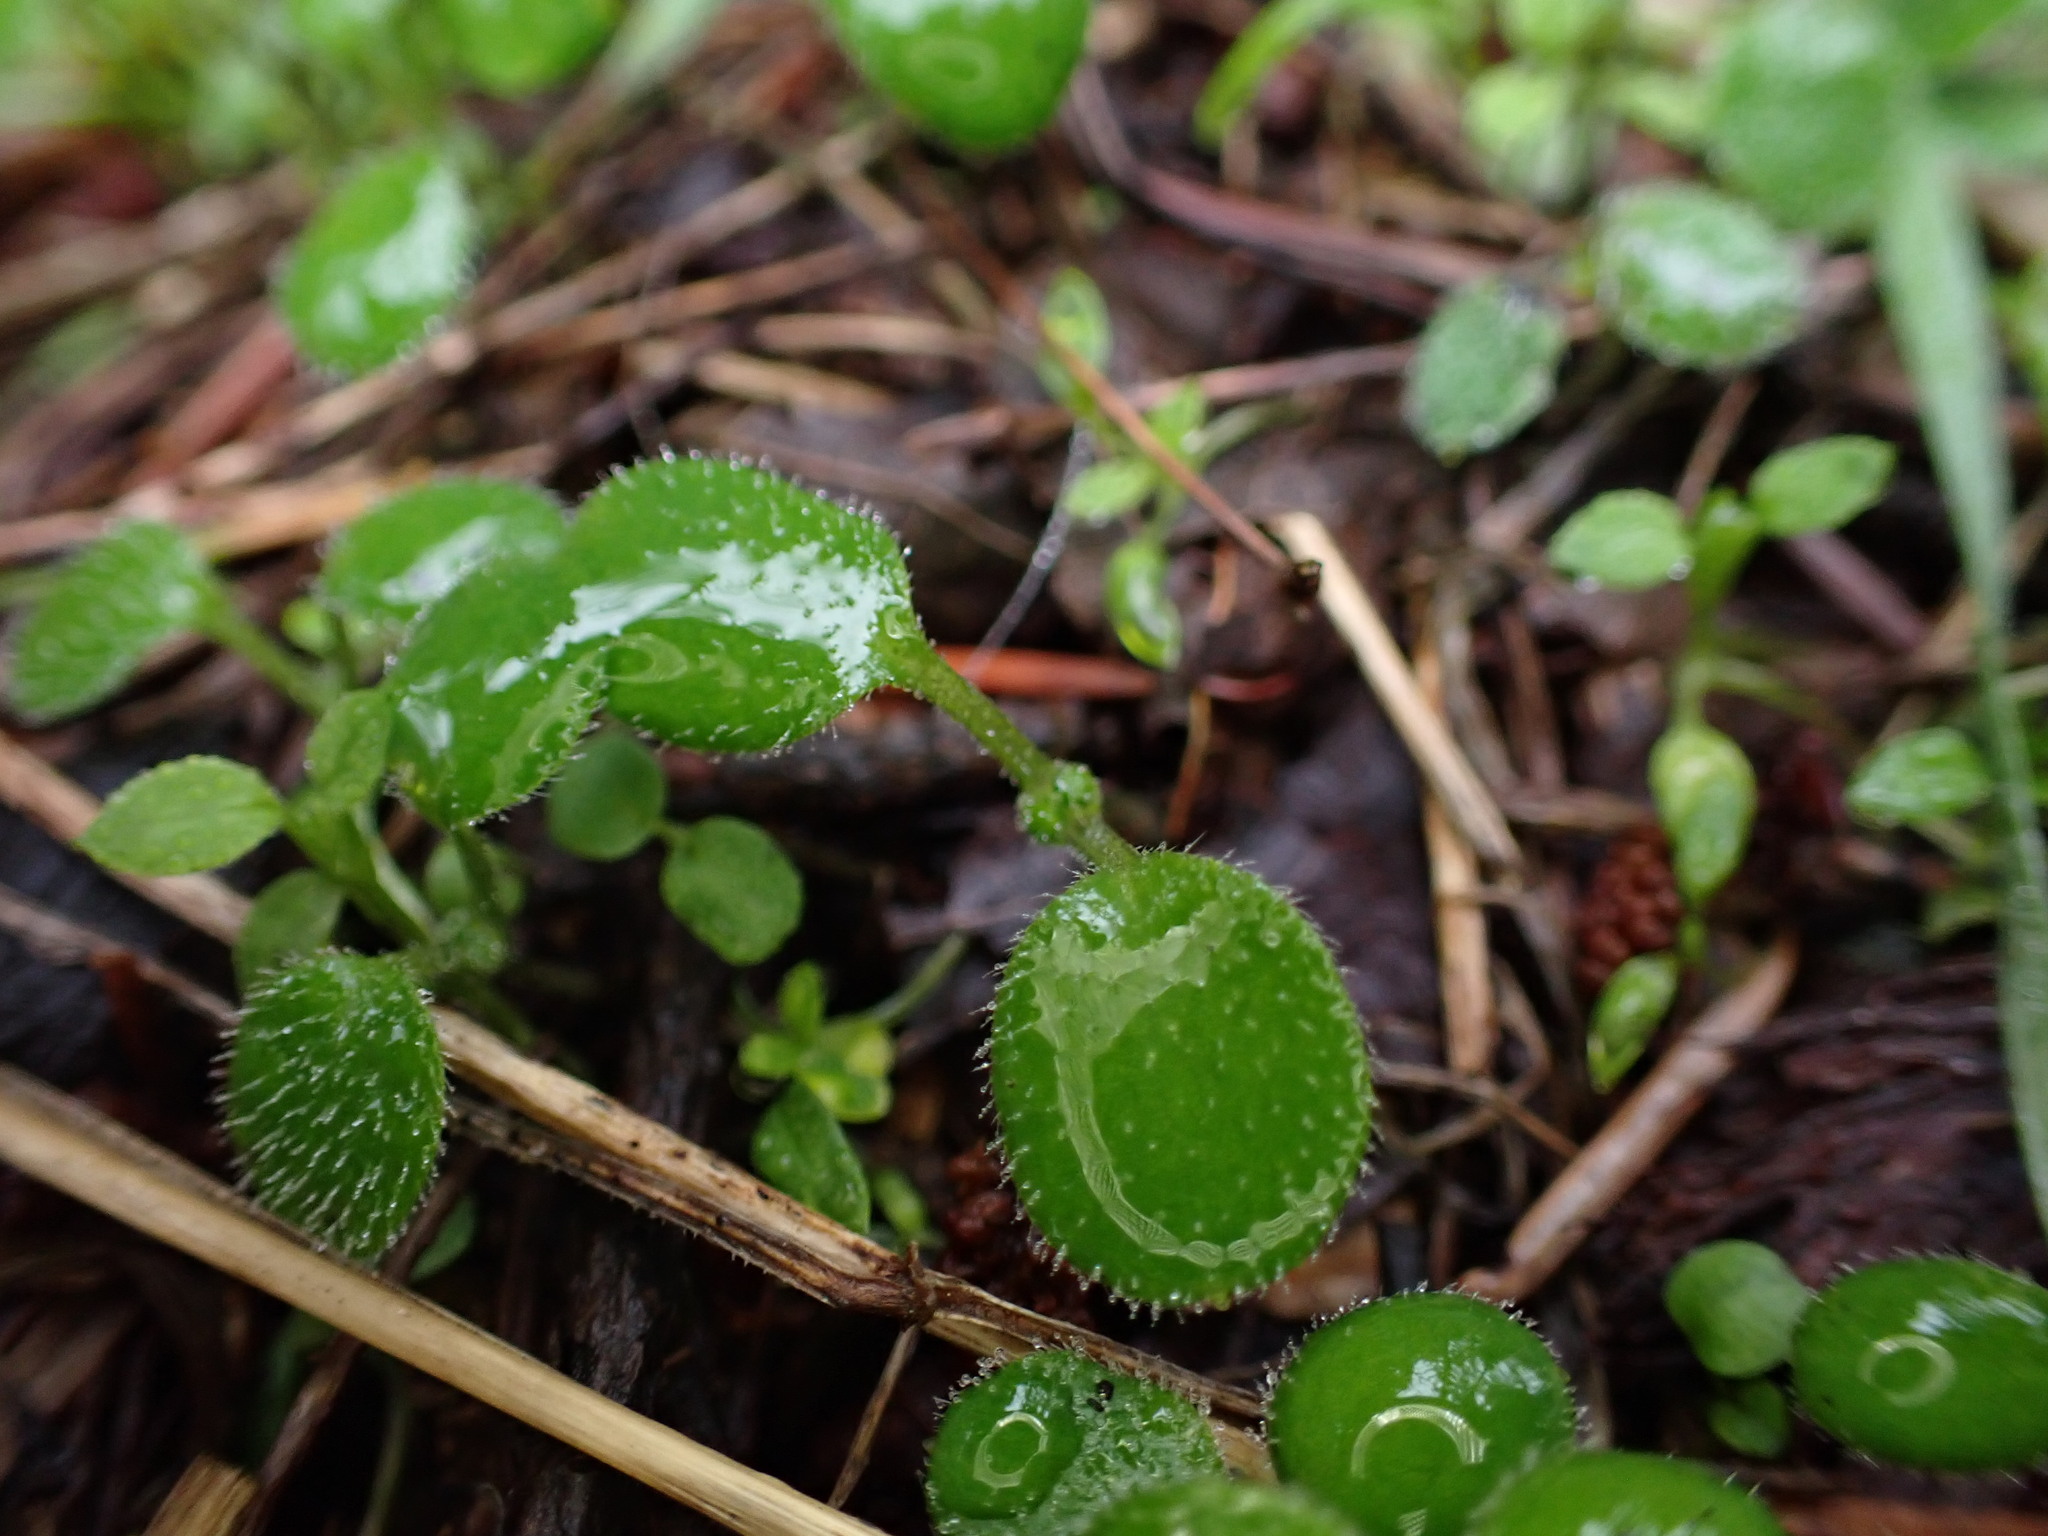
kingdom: Plantae
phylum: Tracheophyta
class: Magnoliopsida
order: Boraginales
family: Hydrophyllaceae
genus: Nemophila
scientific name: Nemophila parviflora
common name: Small-flowered baby-blue-eyes
